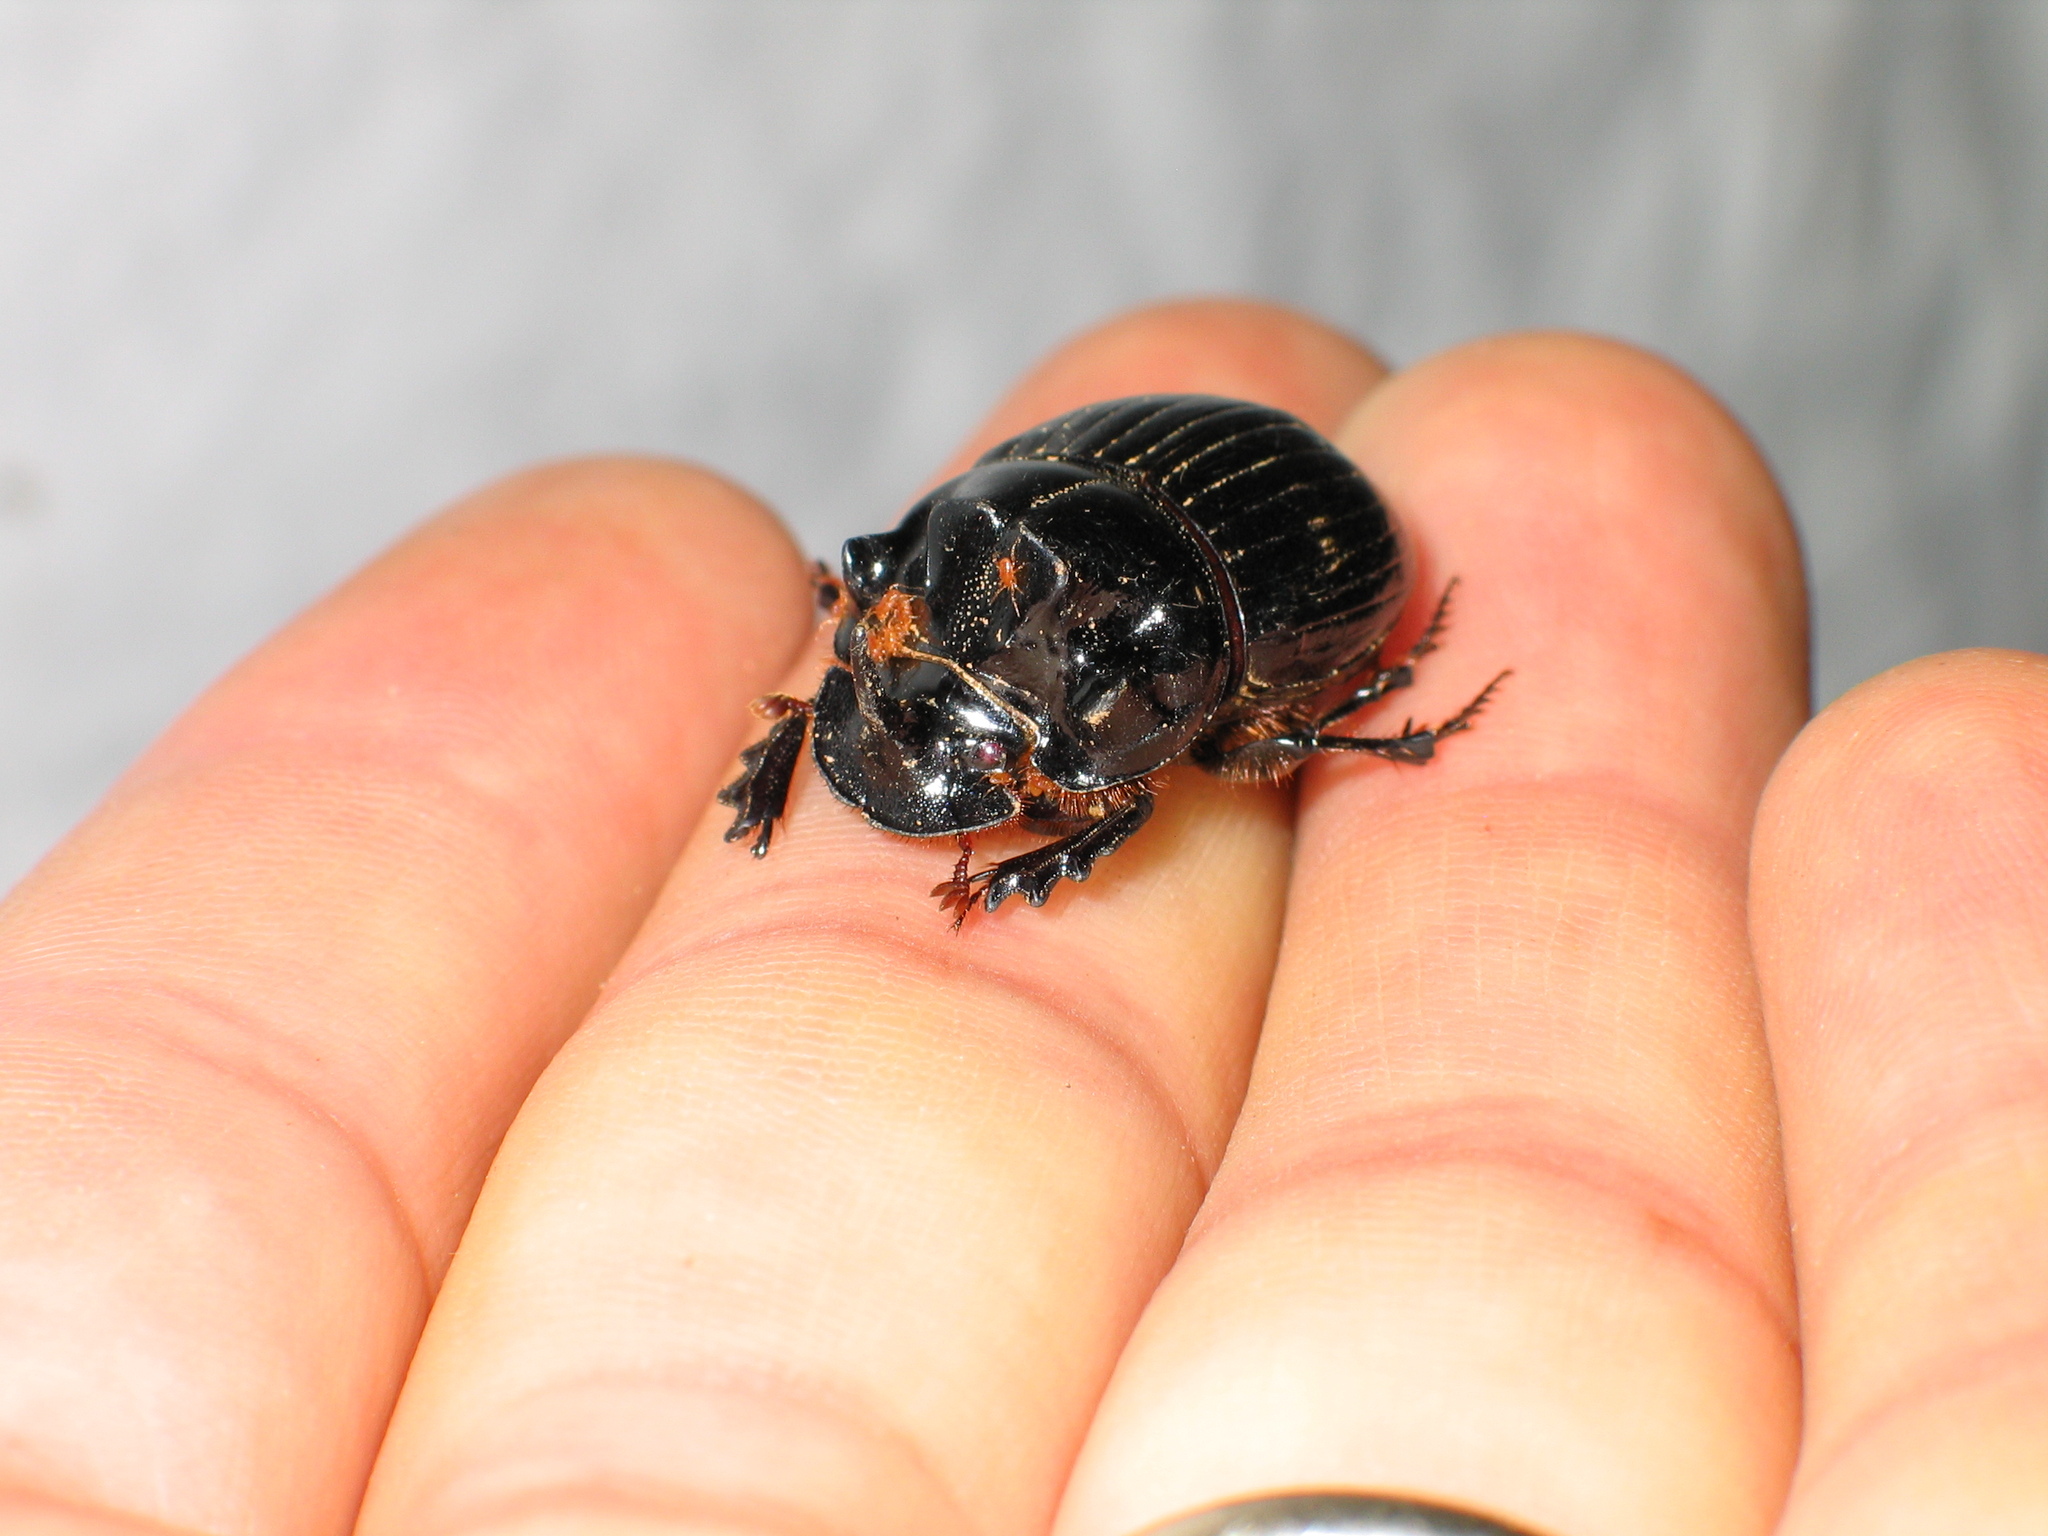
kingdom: Animalia
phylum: Arthropoda
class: Insecta
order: Coleoptera
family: Scarabaeidae
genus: Copris
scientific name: Copris lunaris
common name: Horned dung beetle
